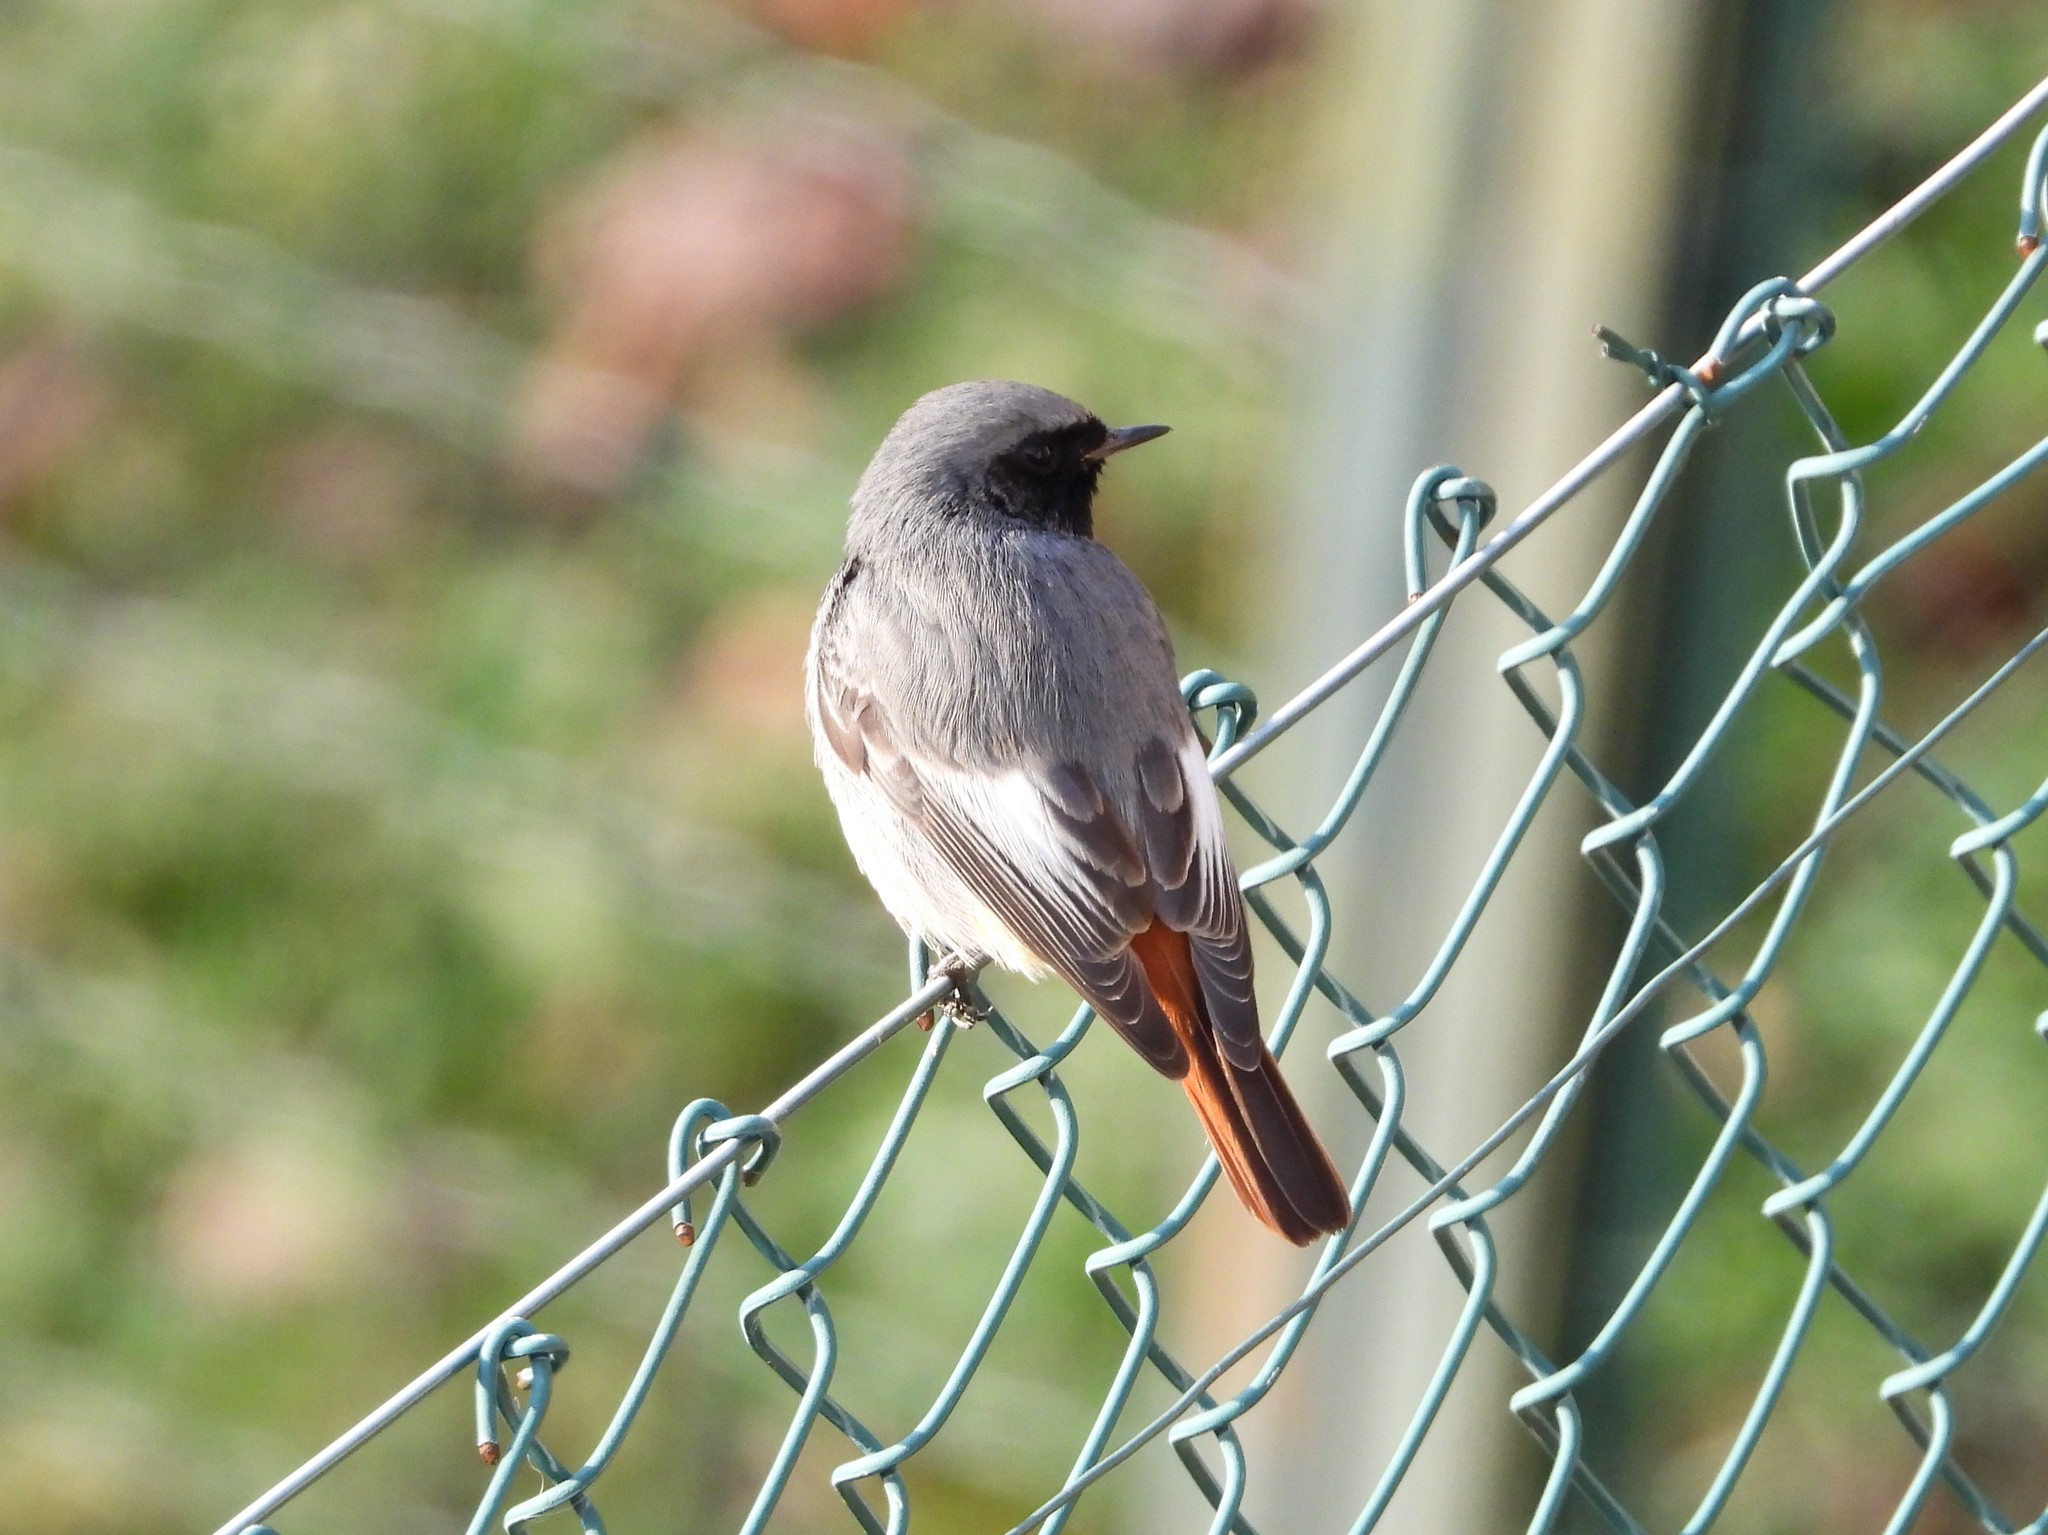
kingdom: Animalia
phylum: Chordata
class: Aves
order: Passeriformes
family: Muscicapidae
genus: Phoenicurus
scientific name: Phoenicurus ochruros
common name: Black redstart
